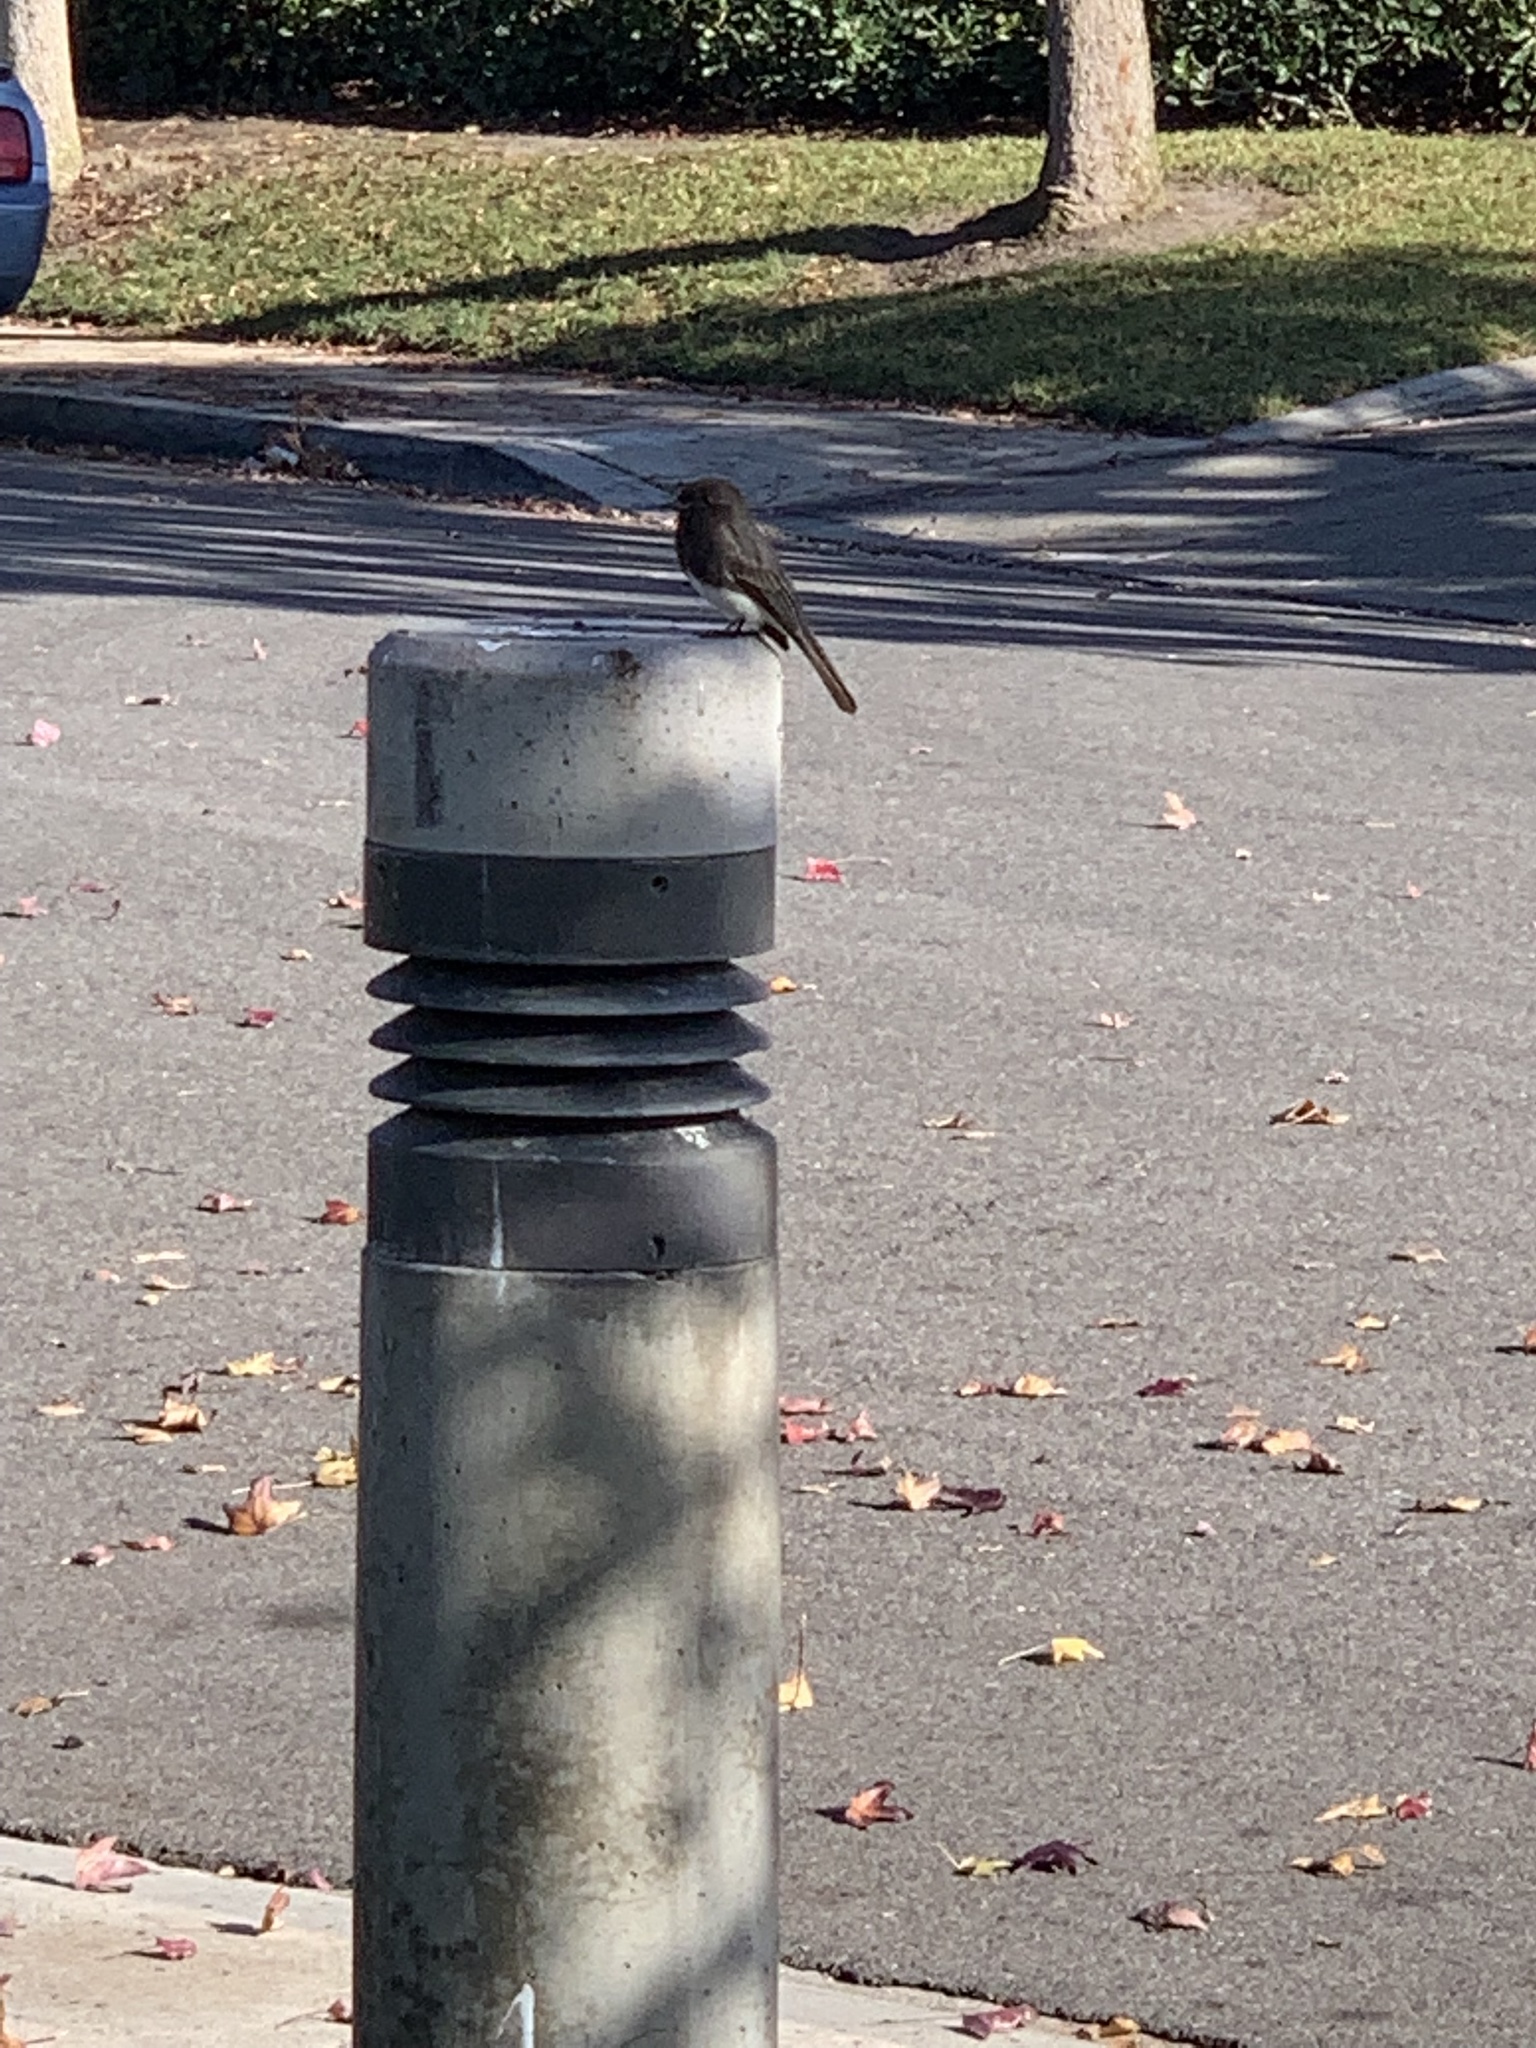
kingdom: Animalia
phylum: Chordata
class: Aves
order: Passeriformes
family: Tyrannidae
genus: Sayornis
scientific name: Sayornis nigricans
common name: Black phoebe
